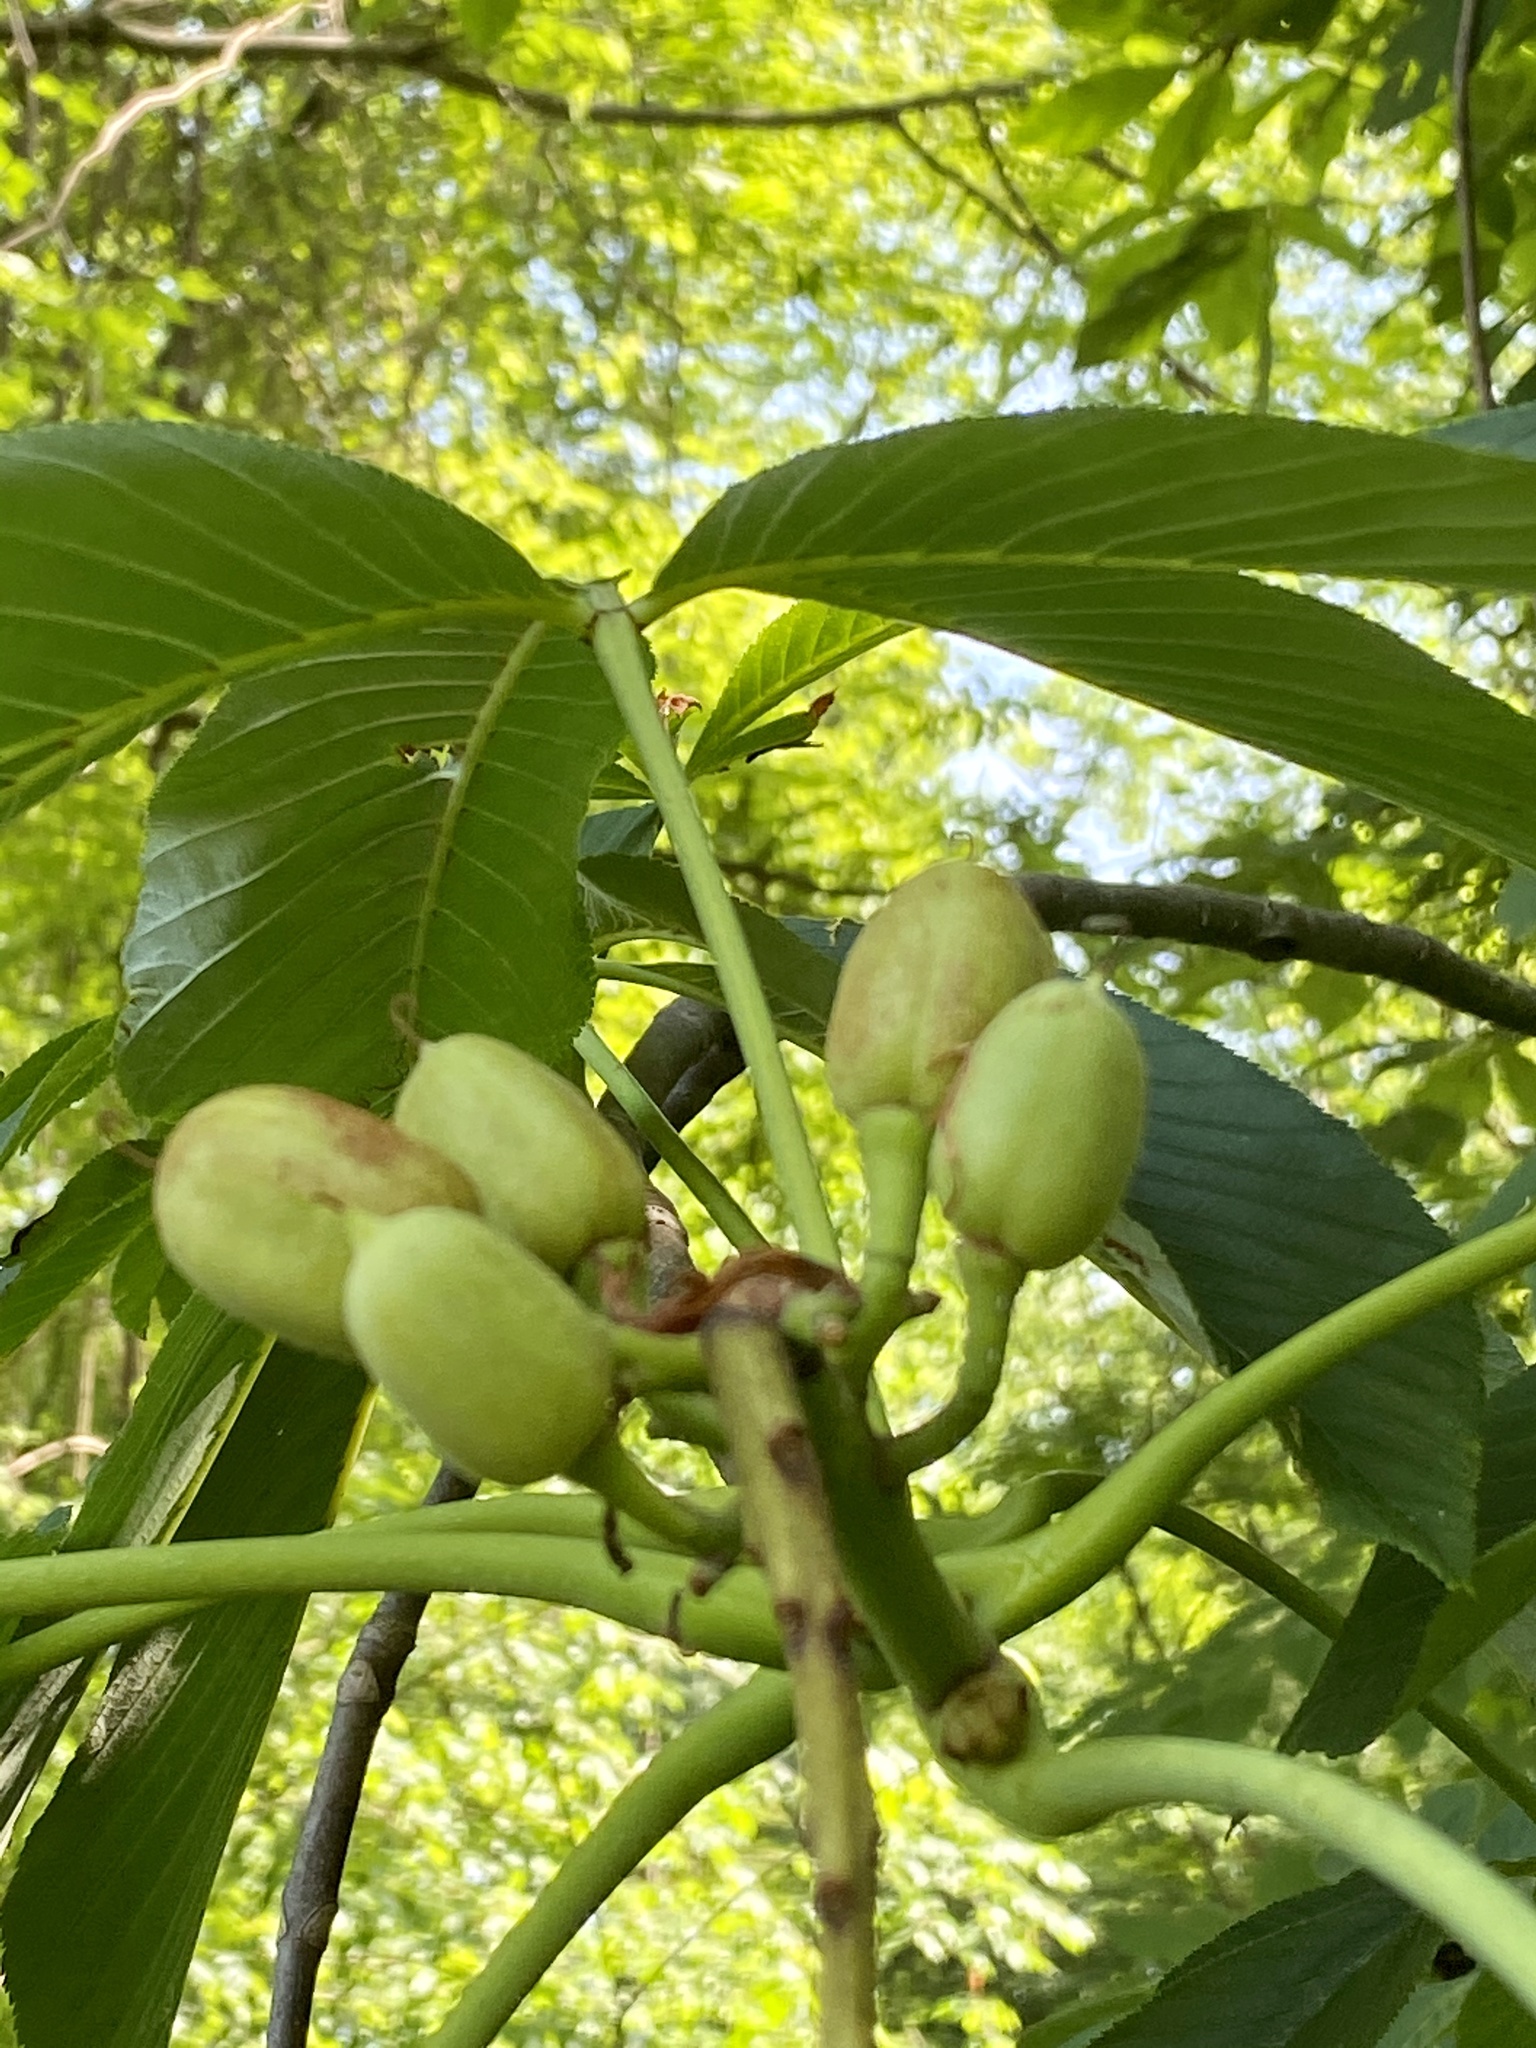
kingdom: Plantae
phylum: Tracheophyta
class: Magnoliopsida
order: Sapindales
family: Sapindaceae
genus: Aesculus
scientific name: Aesculus flava
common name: Yellow buckeye
